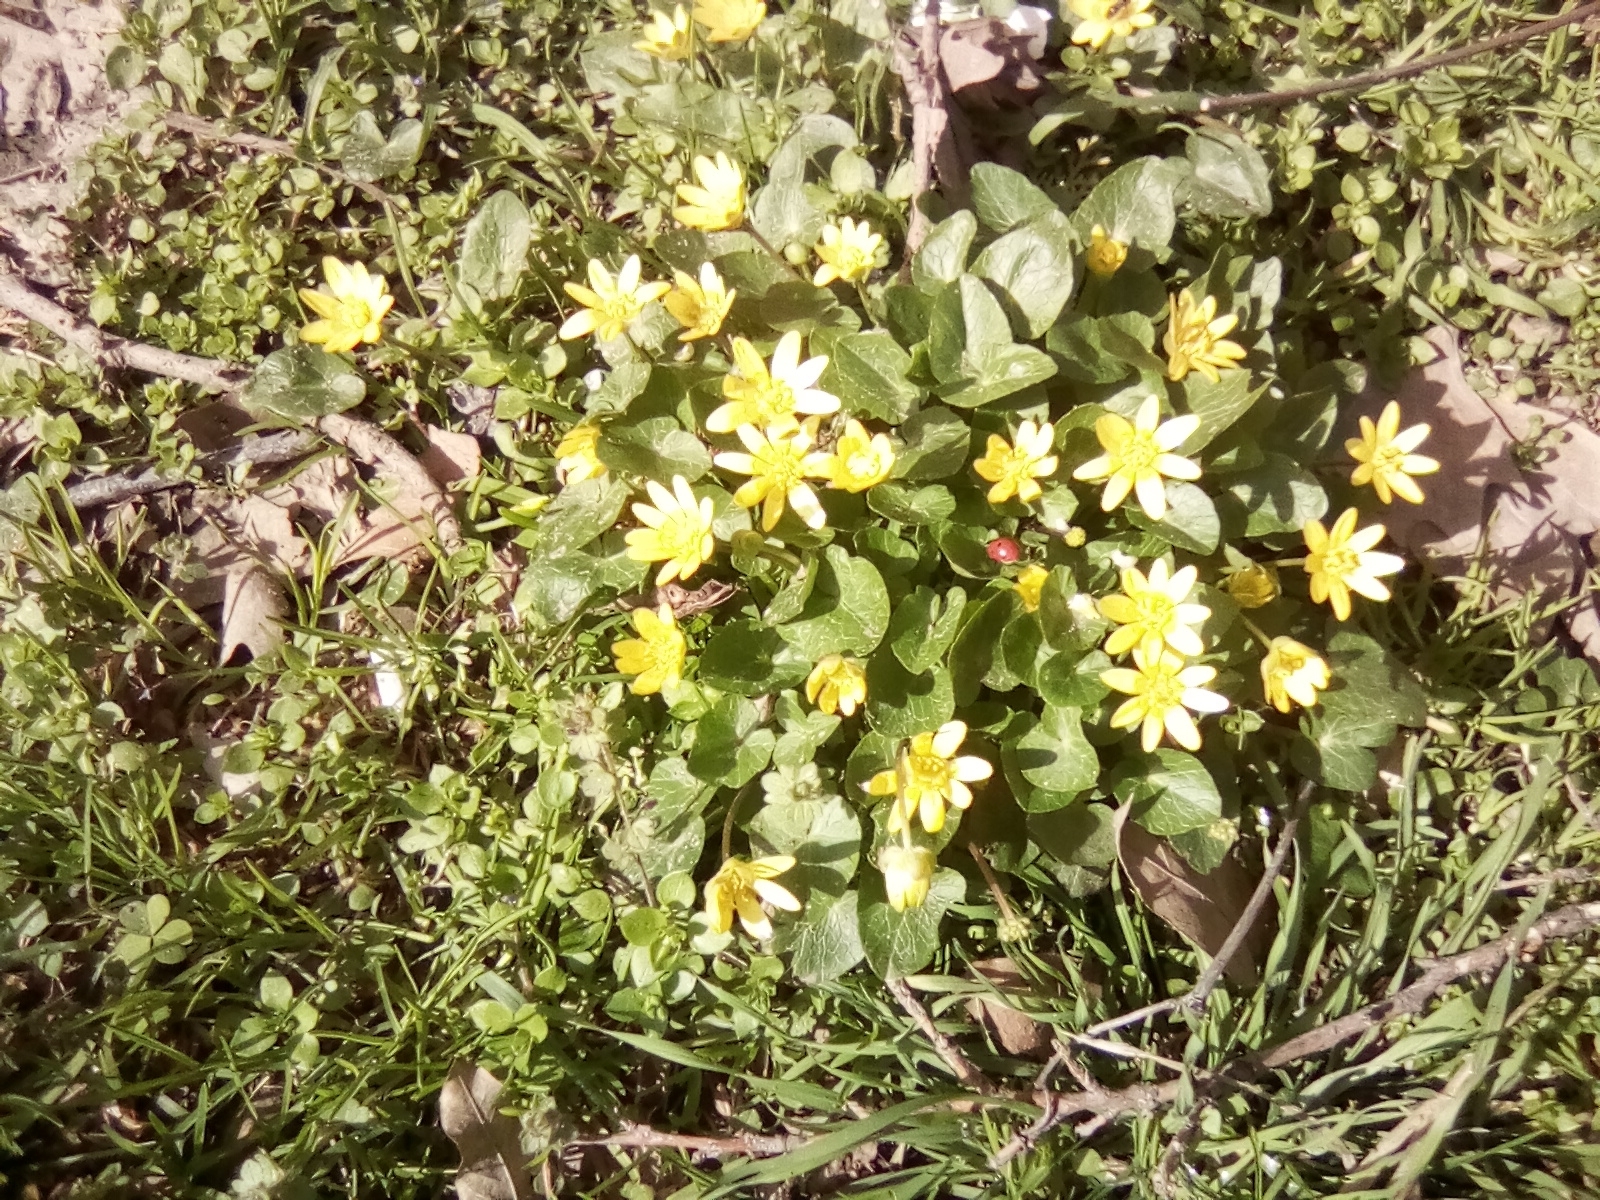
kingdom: Plantae
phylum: Tracheophyta
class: Magnoliopsida
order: Ranunculales
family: Ranunculaceae
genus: Ficaria
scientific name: Ficaria verna
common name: Lesser celandine
